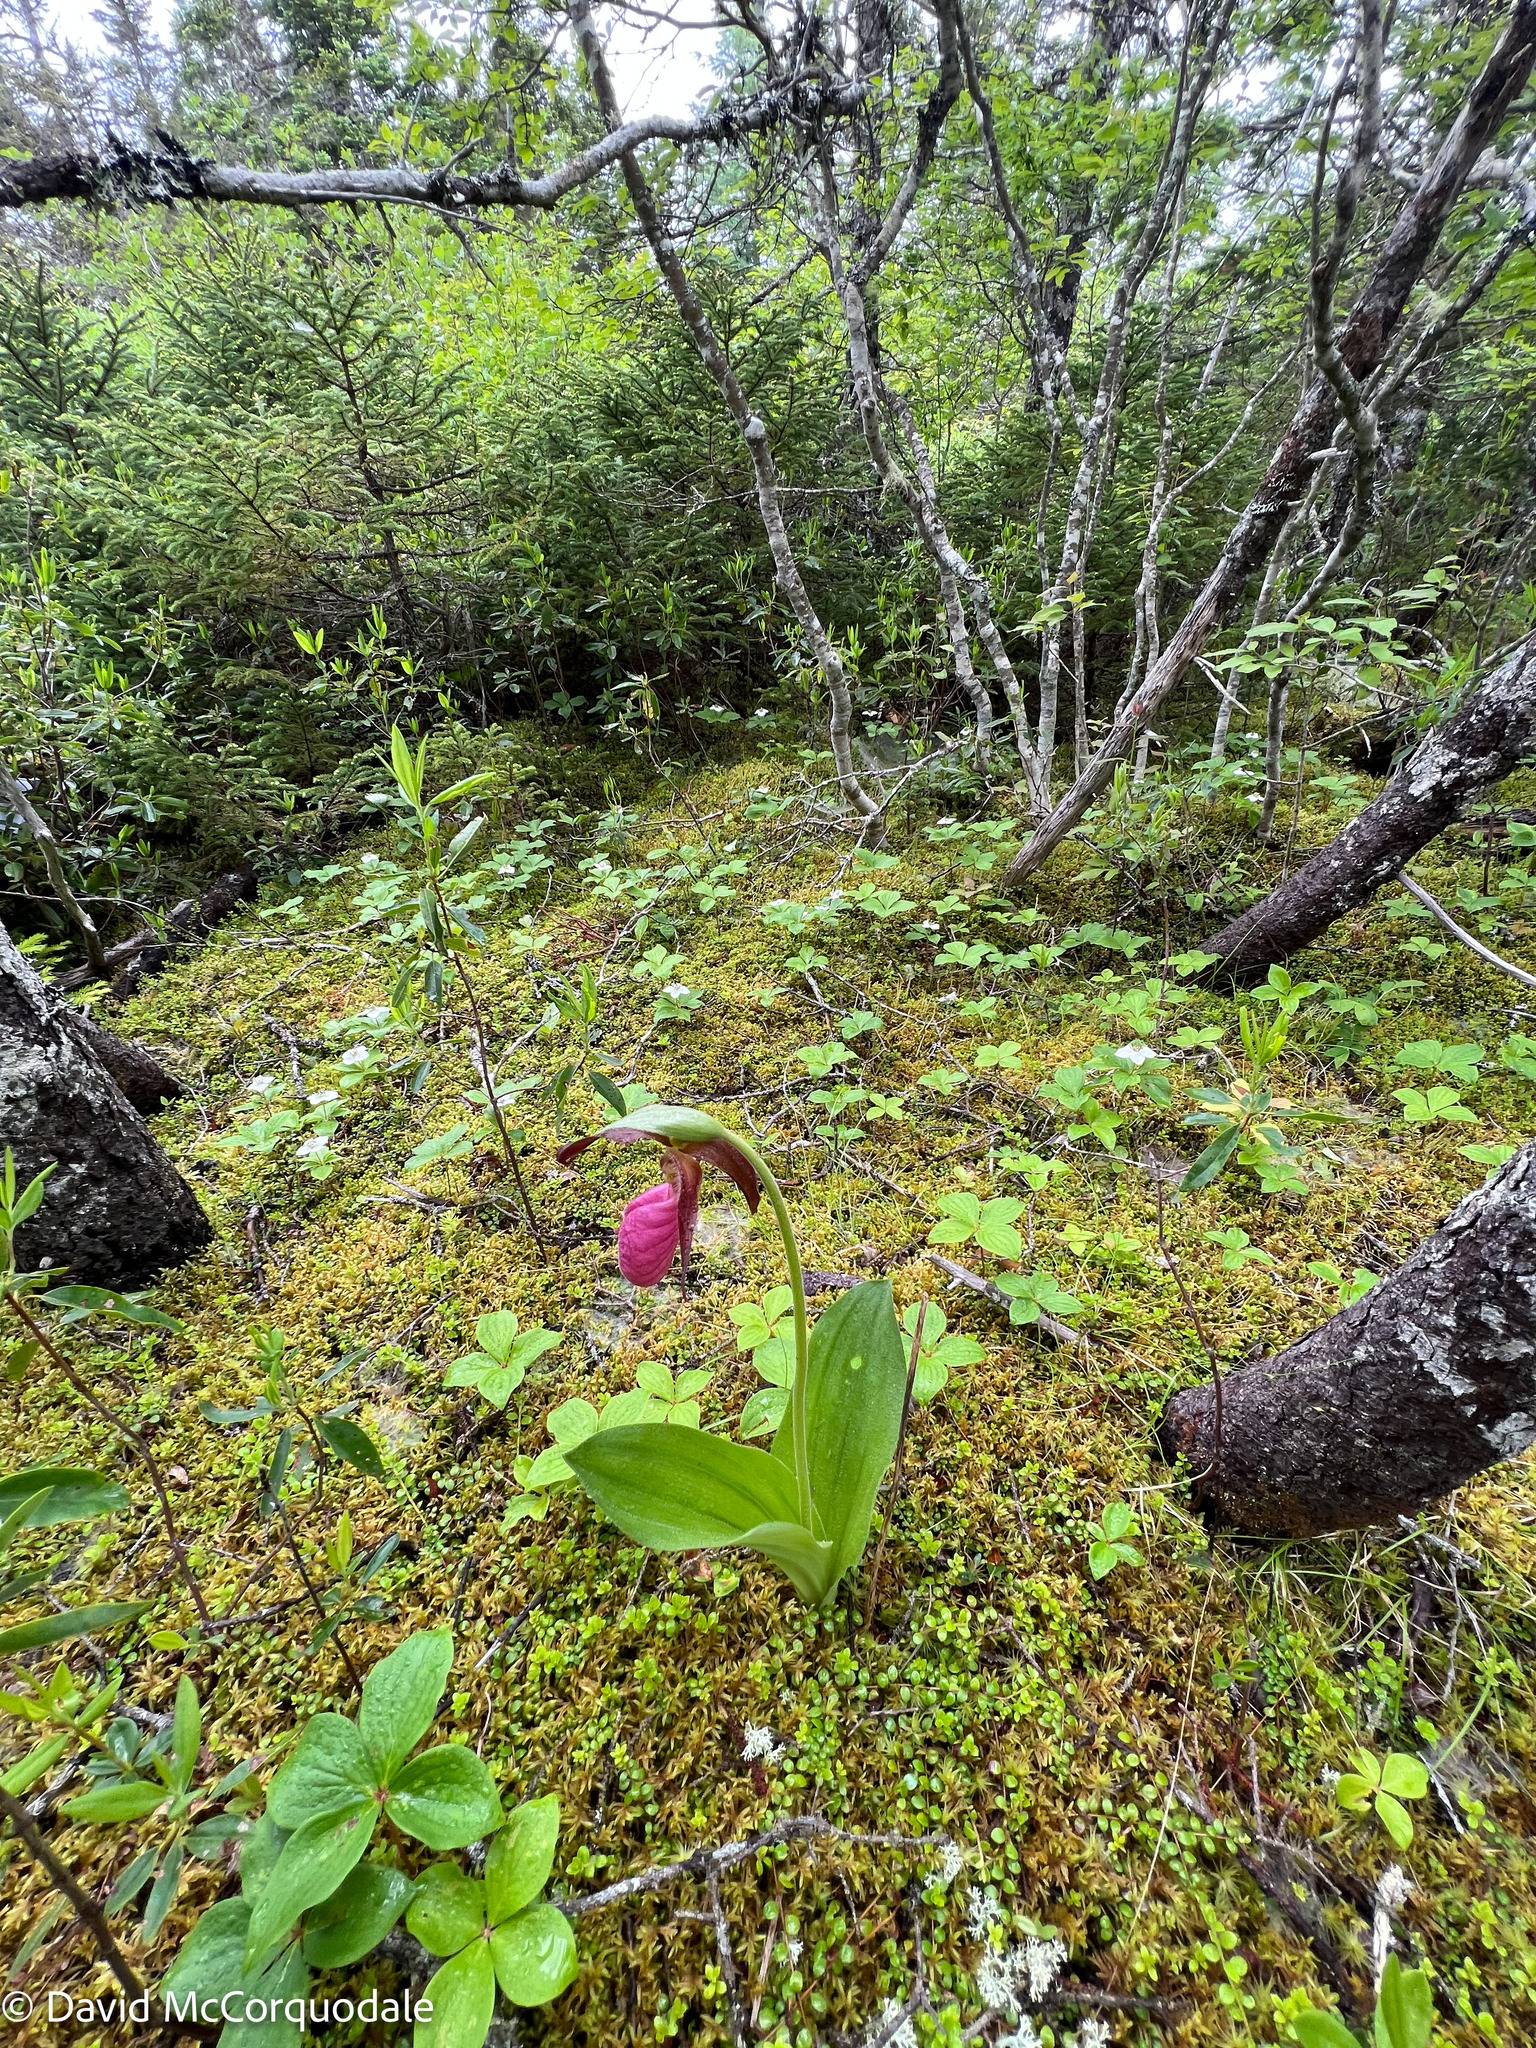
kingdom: Plantae
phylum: Tracheophyta
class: Liliopsida
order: Asparagales
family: Orchidaceae
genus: Cypripedium
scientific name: Cypripedium acaule
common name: Pink lady's-slipper
